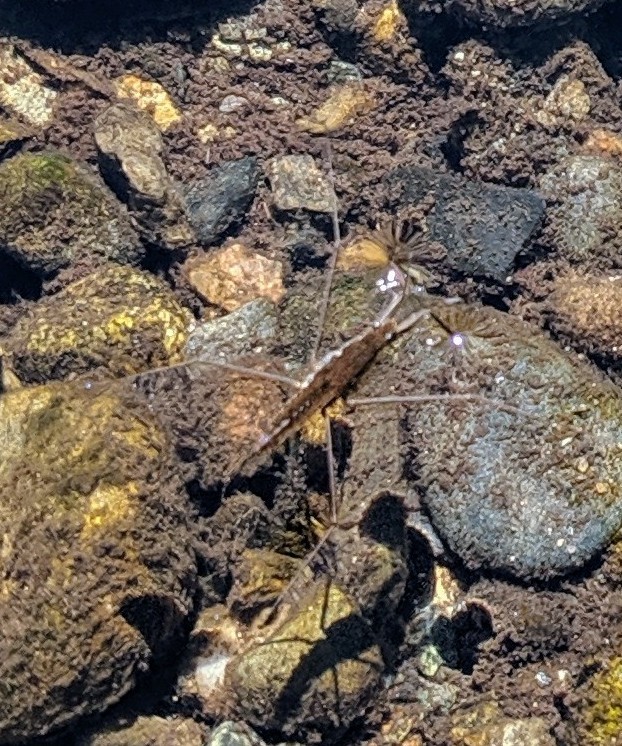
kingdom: Animalia
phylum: Arthropoda
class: Insecta
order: Hemiptera
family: Gerridae
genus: Aquarius
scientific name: Aquarius remigis
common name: Common water strider
